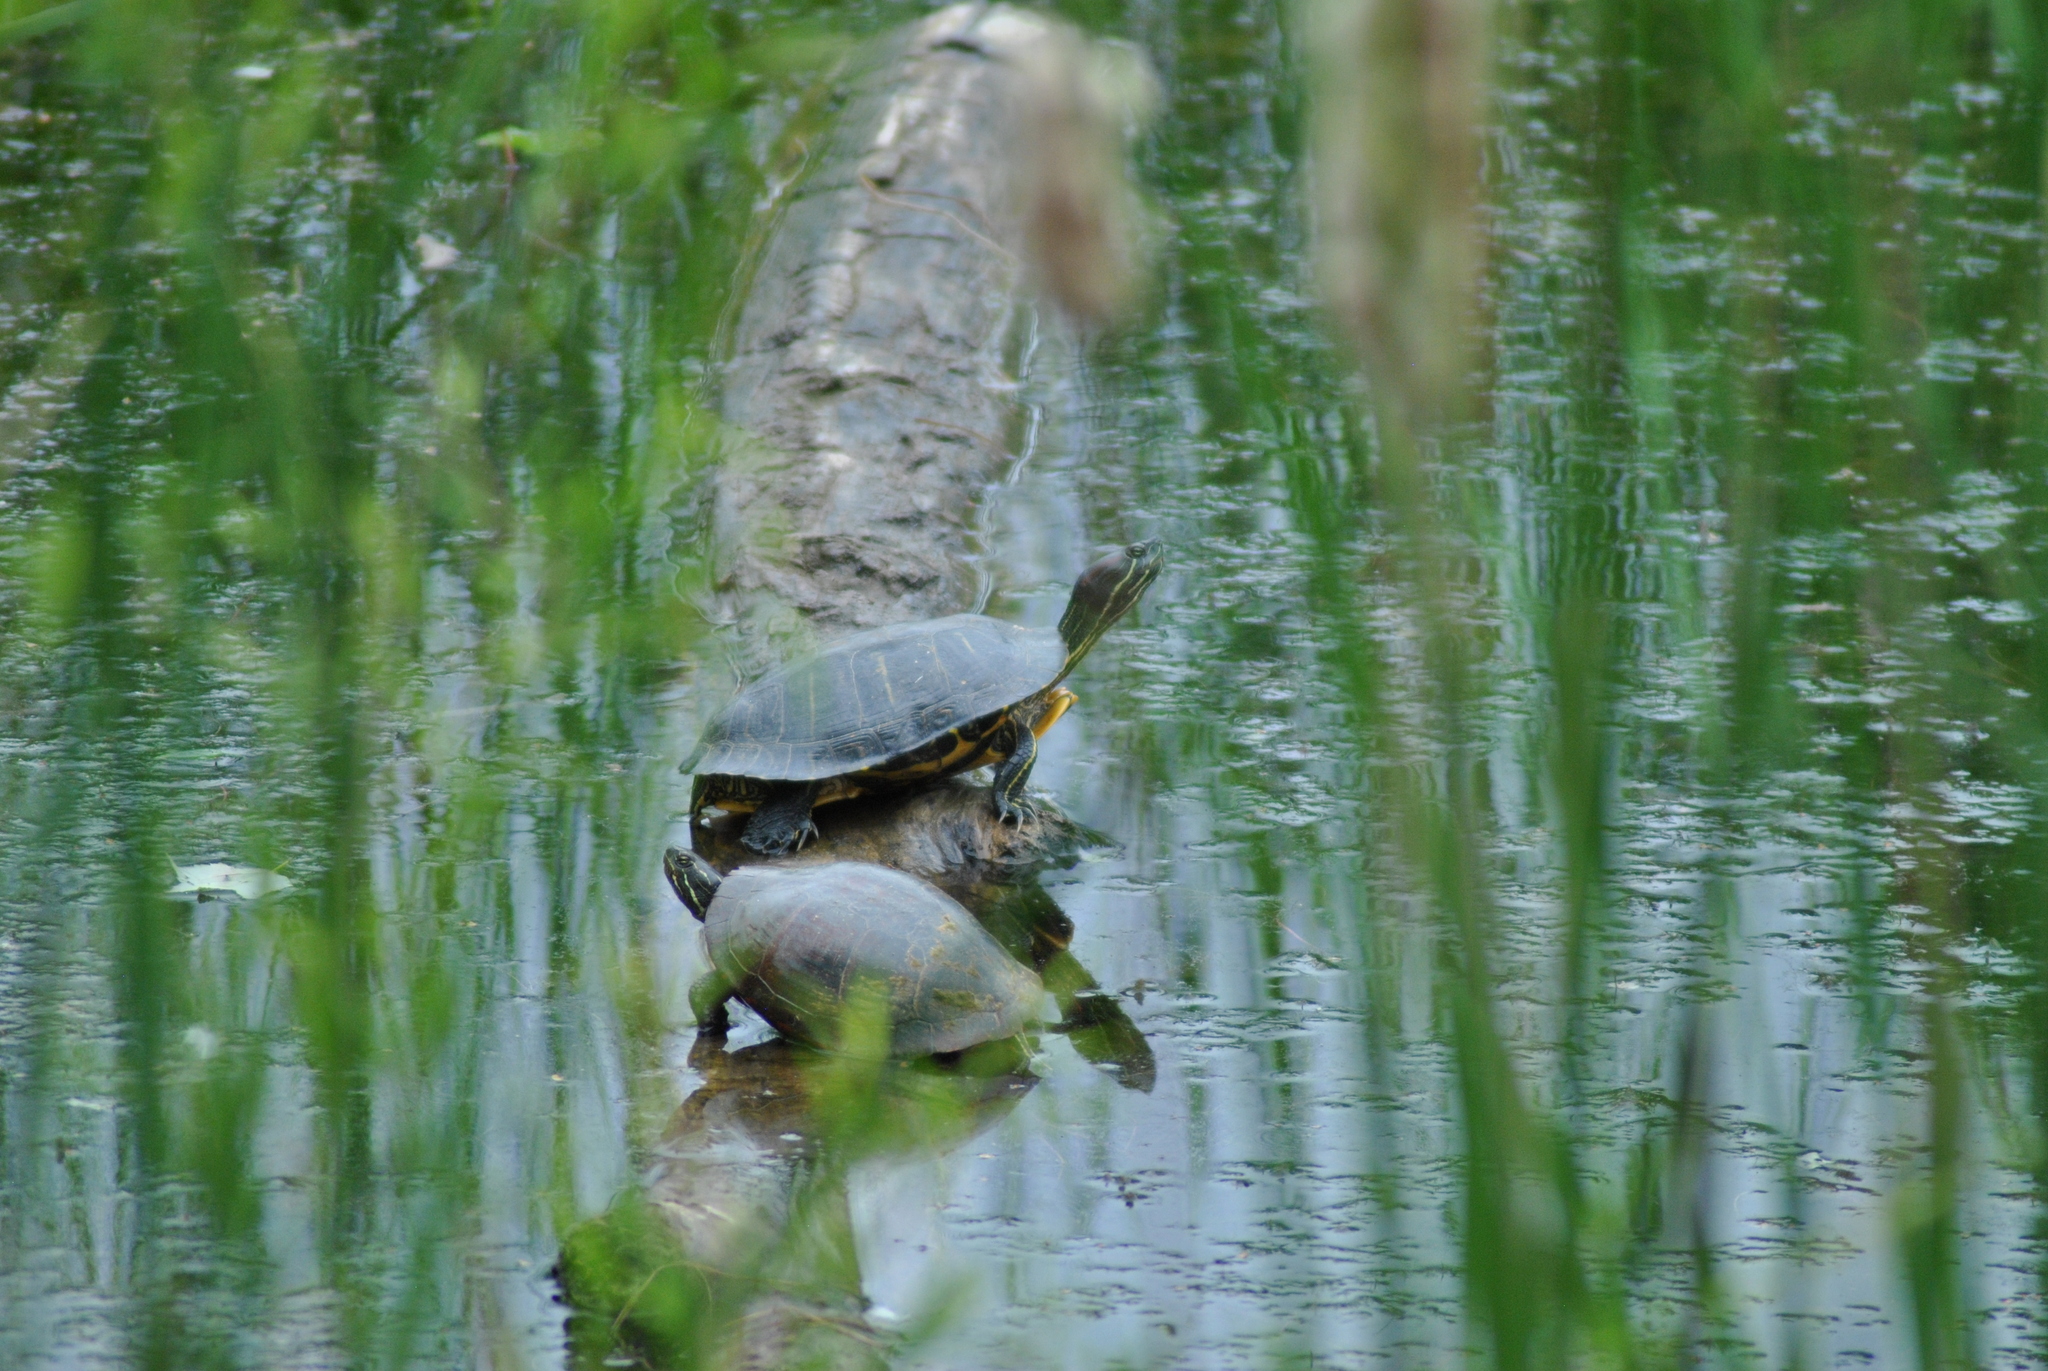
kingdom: Animalia
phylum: Chordata
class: Testudines
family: Emydidae
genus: Trachemys
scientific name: Trachemys scripta
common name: Slider
